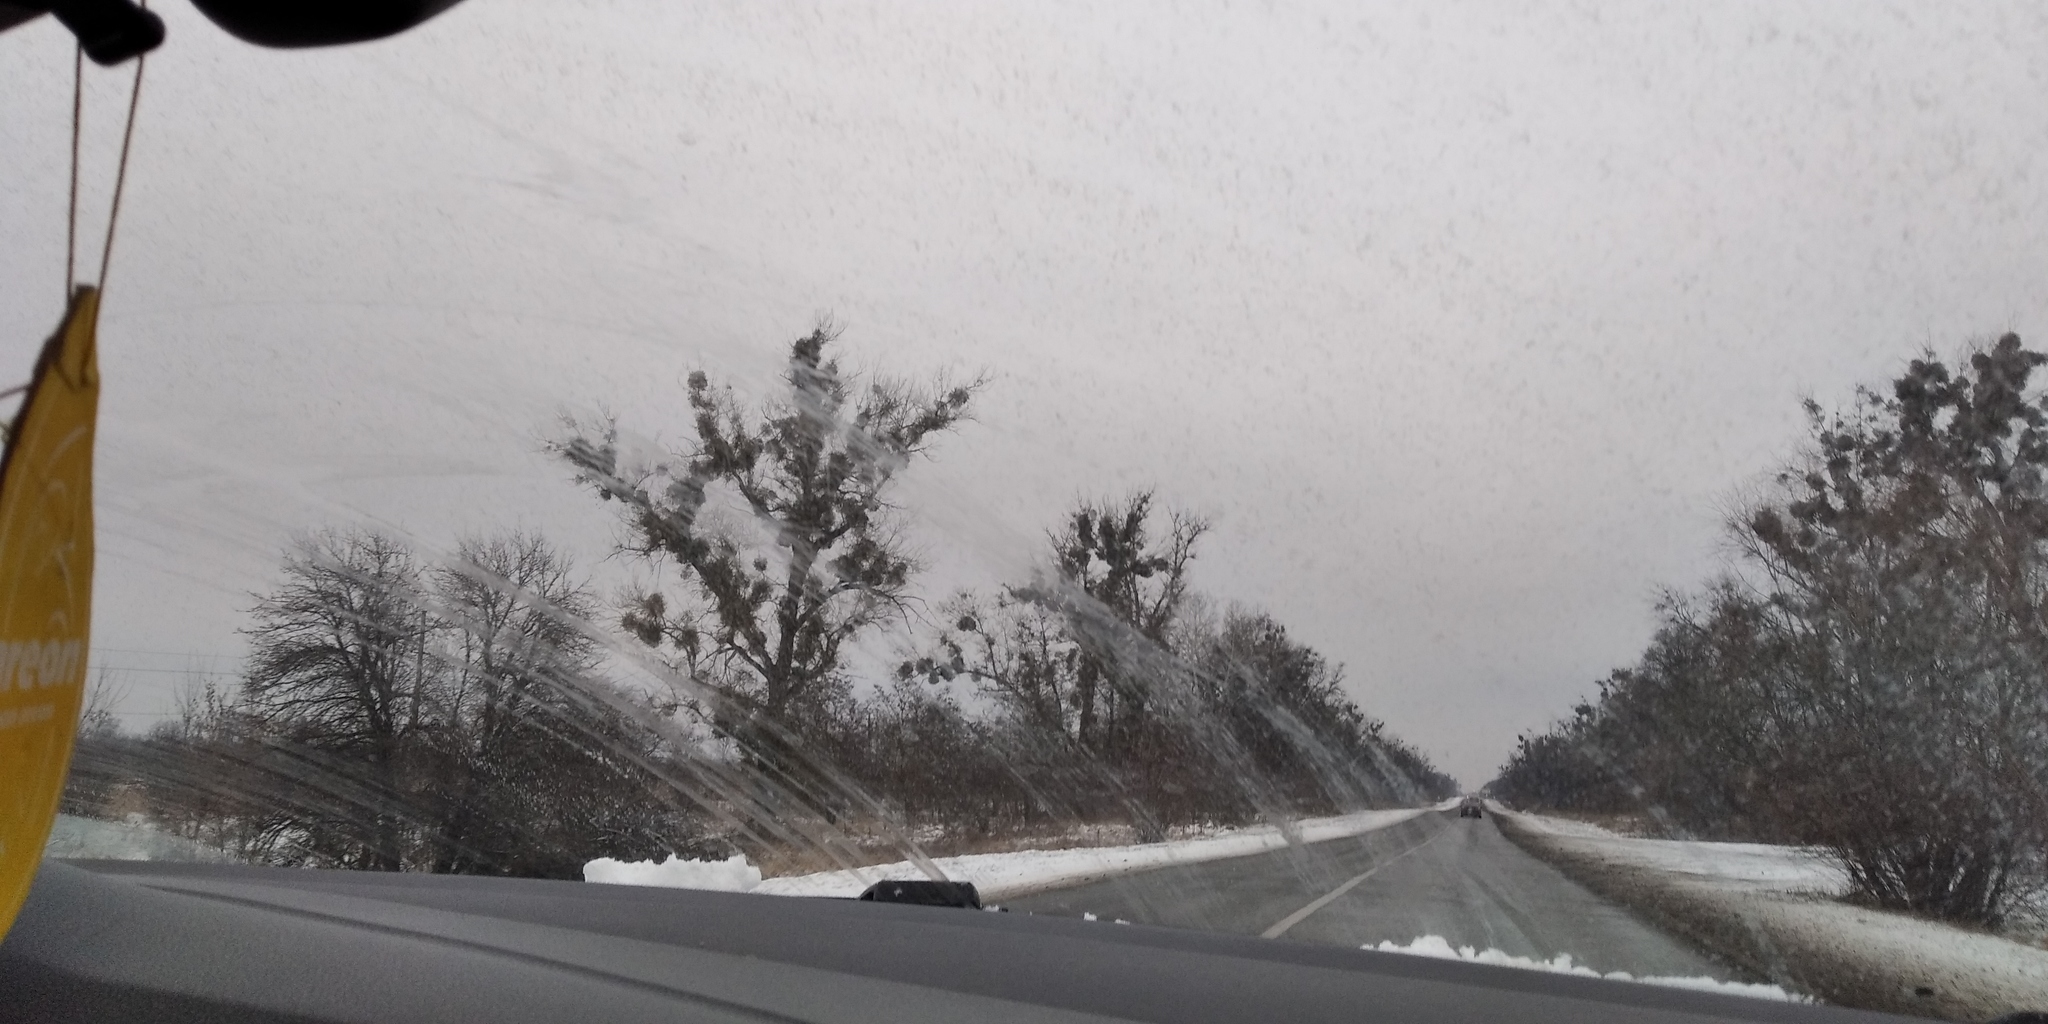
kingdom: Plantae
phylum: Tracheophyta
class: Magnoliopsida
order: Santalales
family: Viscaceae
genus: Viscum
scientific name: Viscum album
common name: Mistletoe
